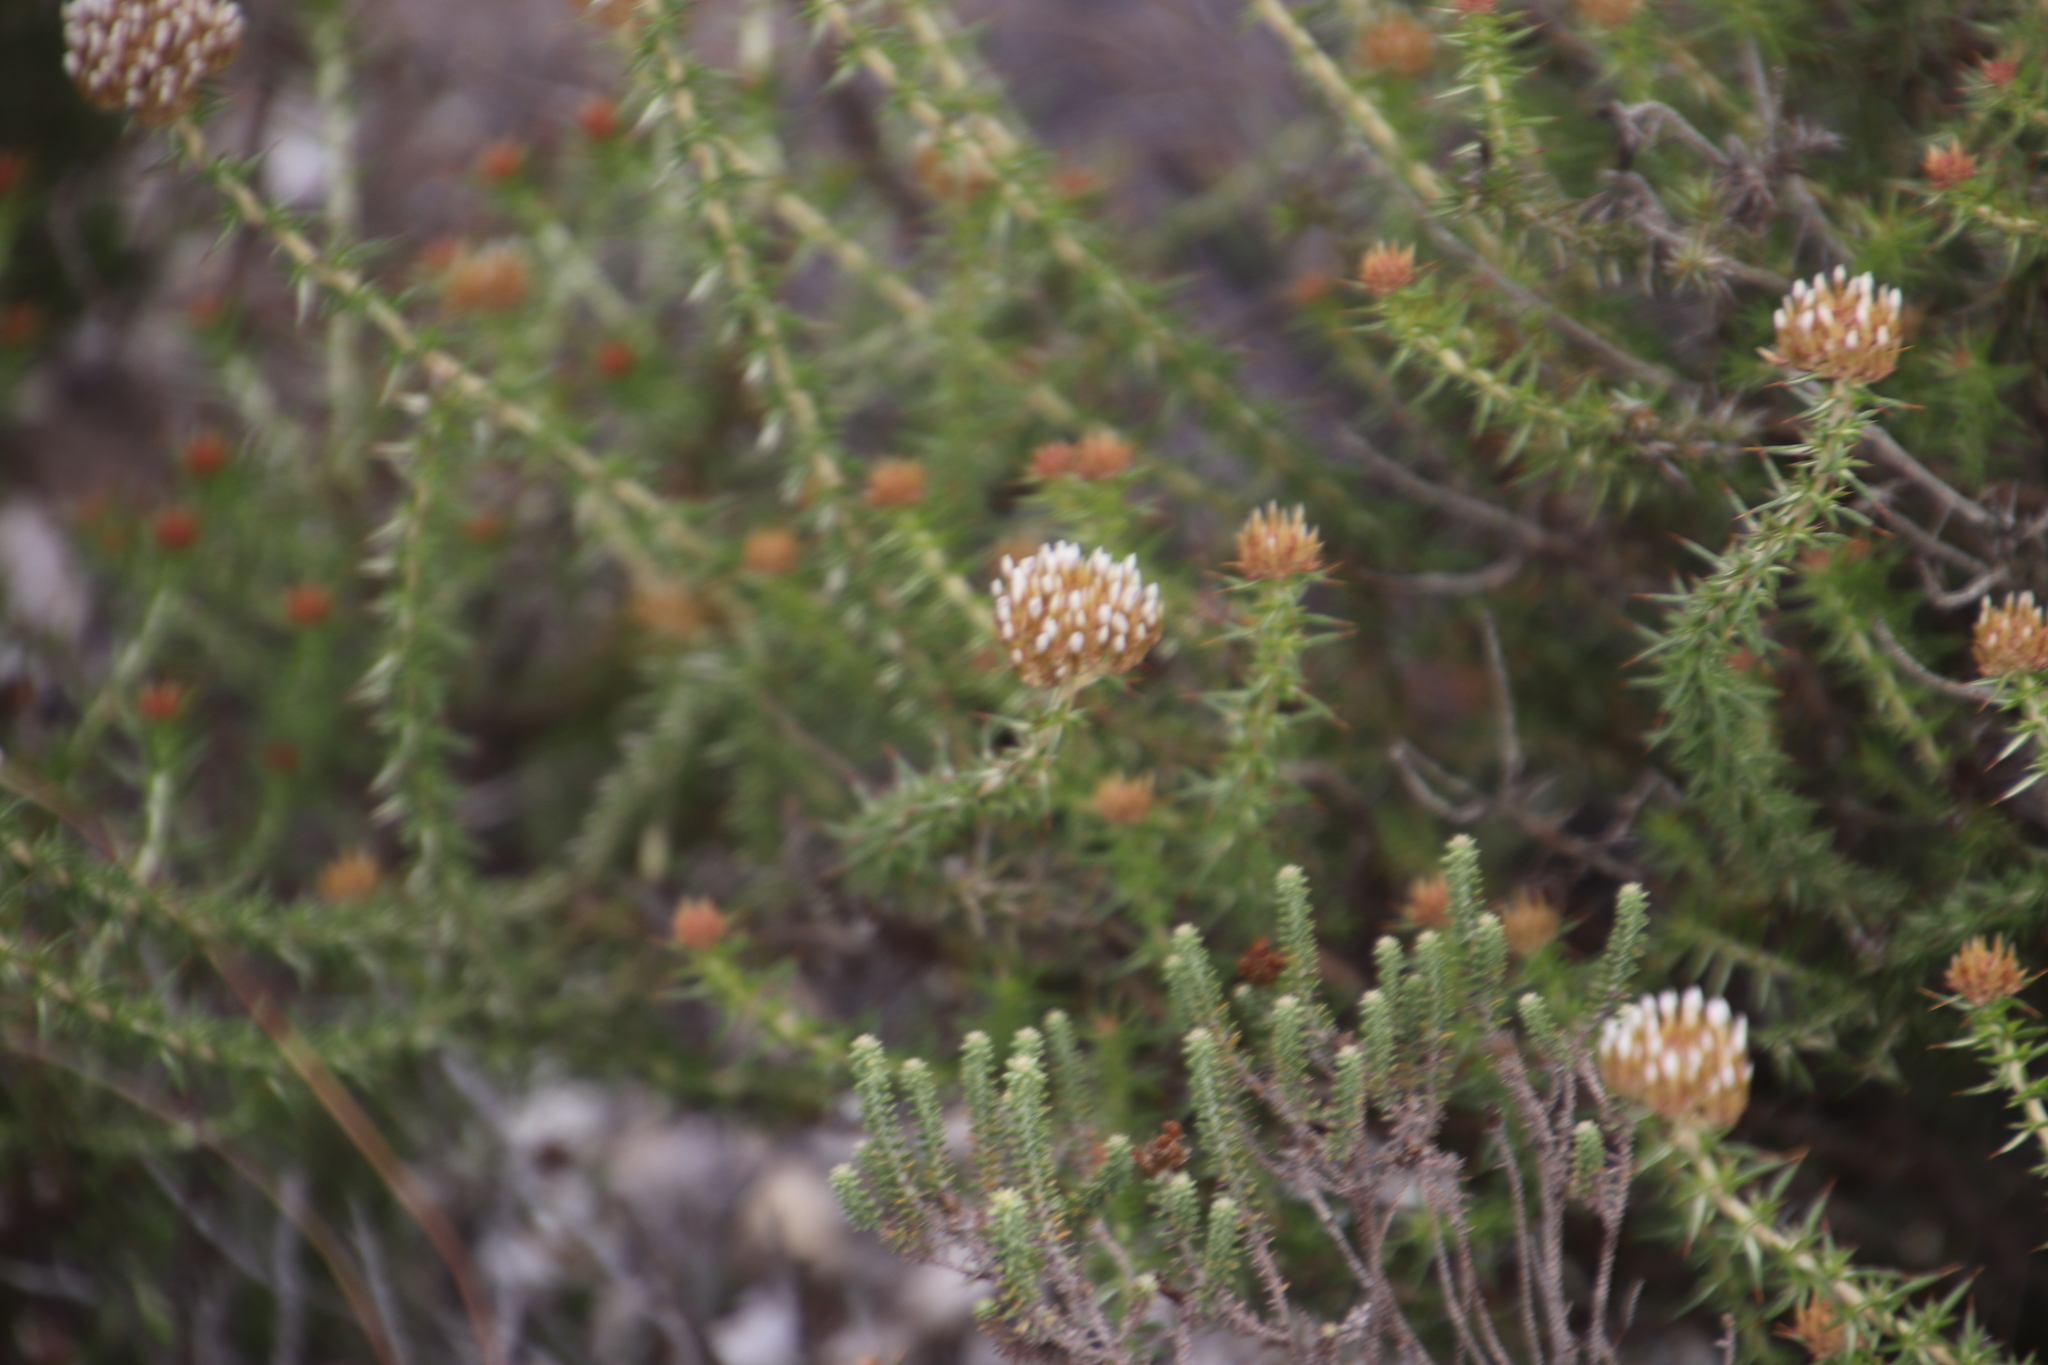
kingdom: Plantae
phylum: Tracheophyta
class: Magnoliopsida
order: Asterales
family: Asteraceae
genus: Metalasia
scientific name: Metalasia acuta
